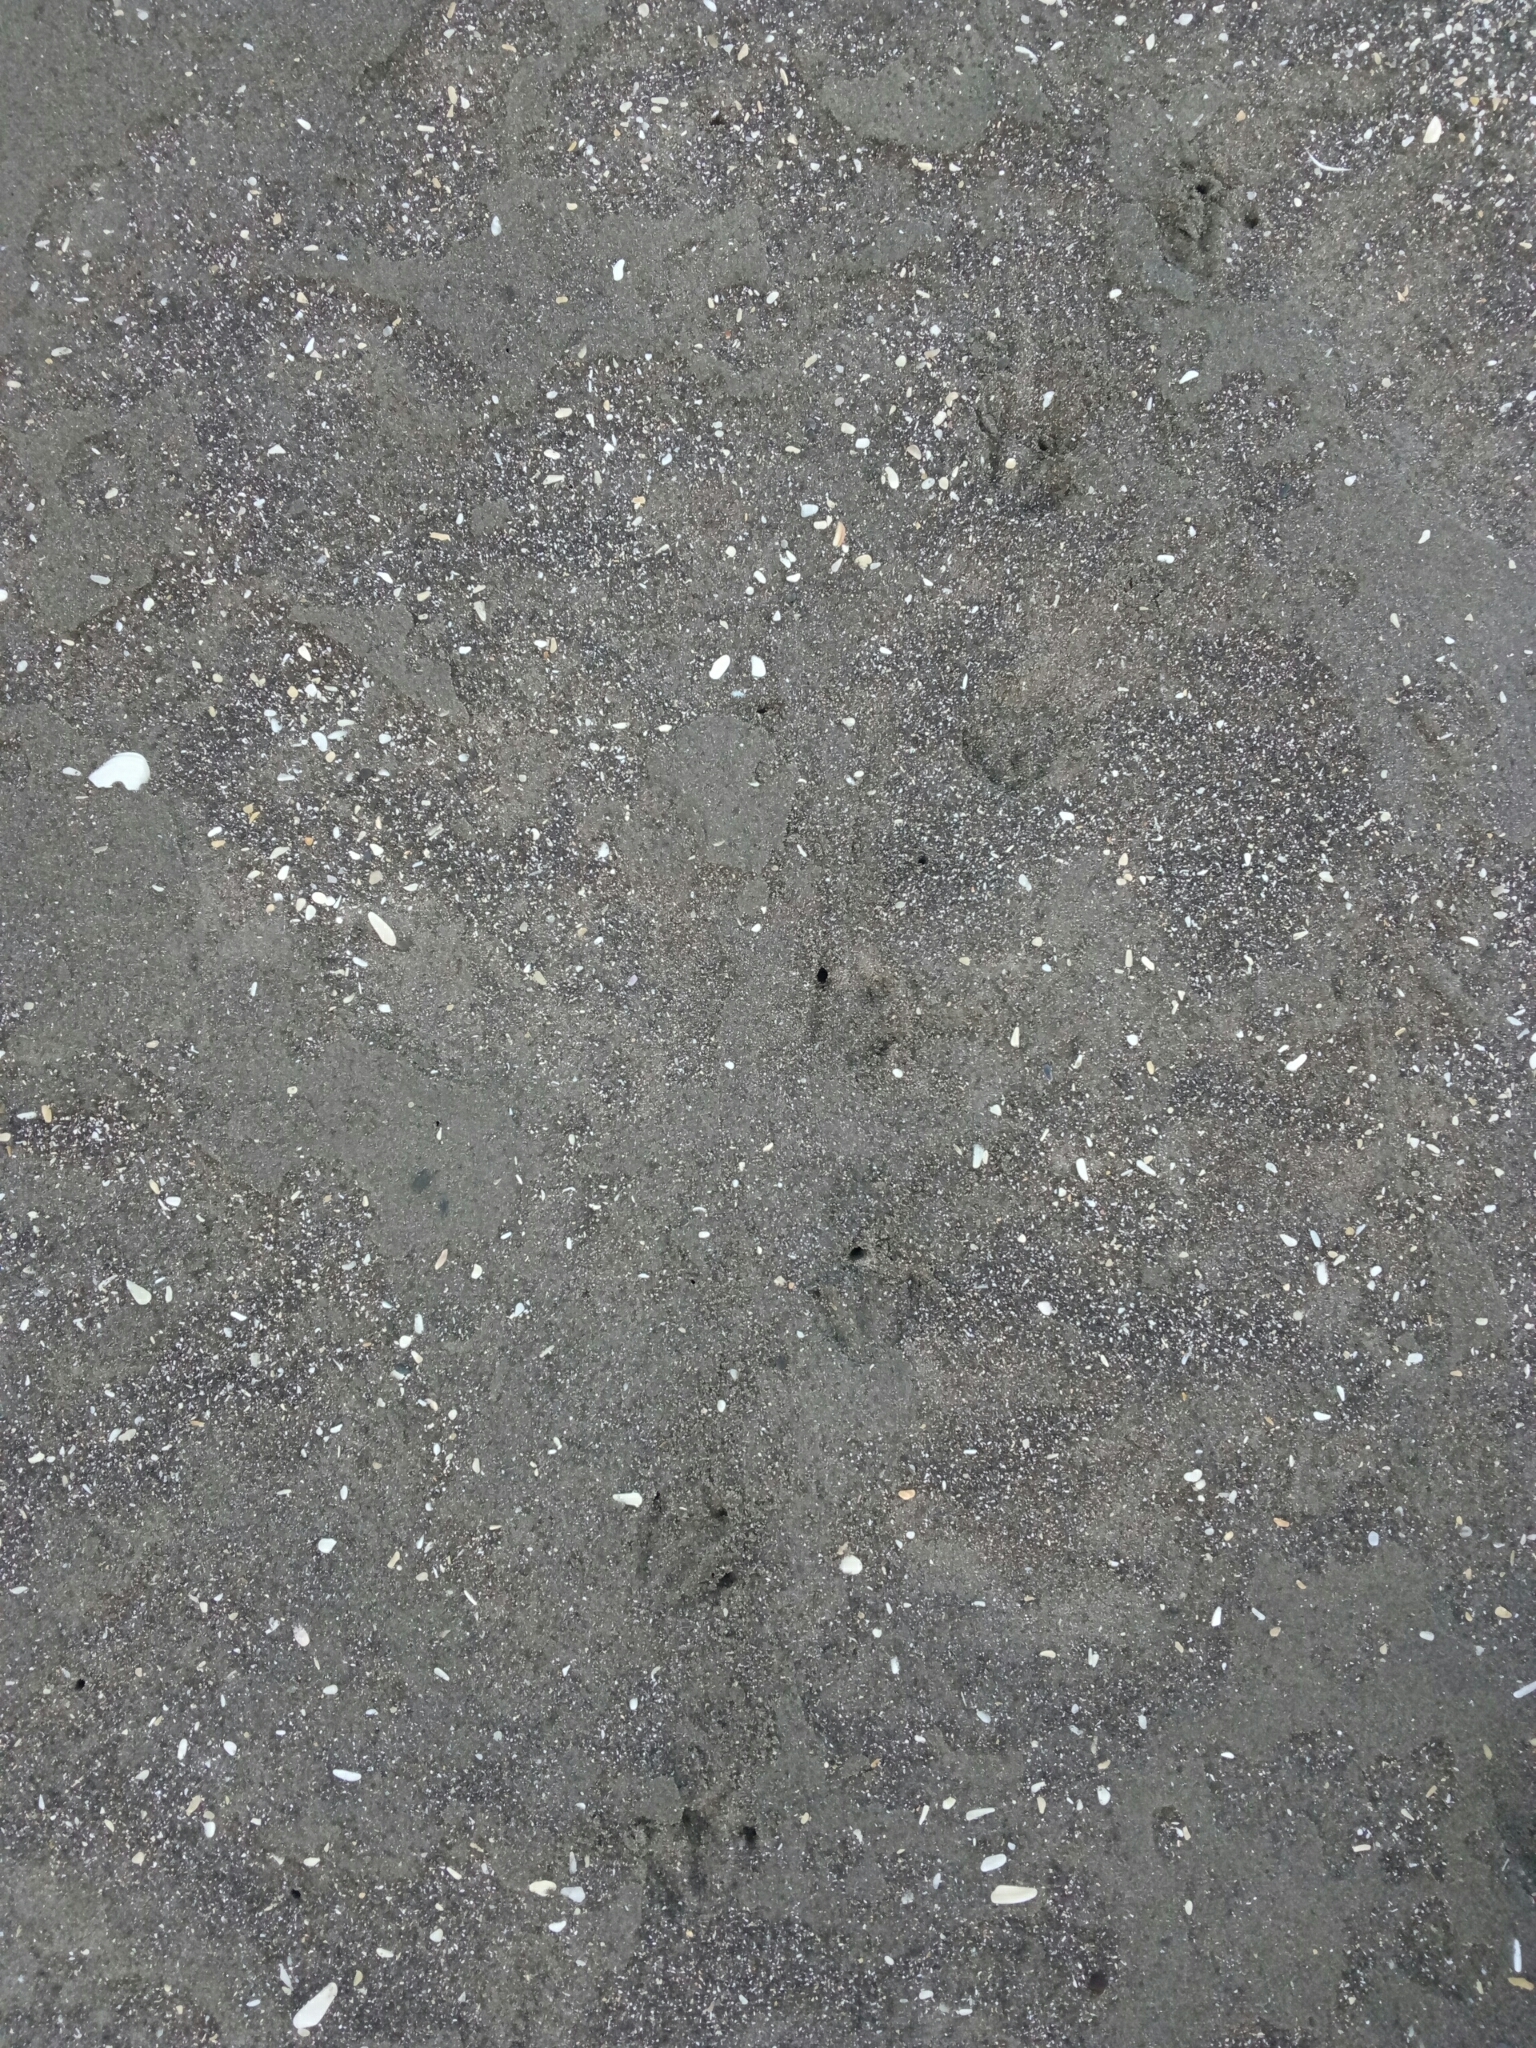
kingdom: Animalia
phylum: Chordata
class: Aves
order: Sphenisciformes
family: Spheniscidae
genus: Eudyptula
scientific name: Eudyptula minor
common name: Little penguin
